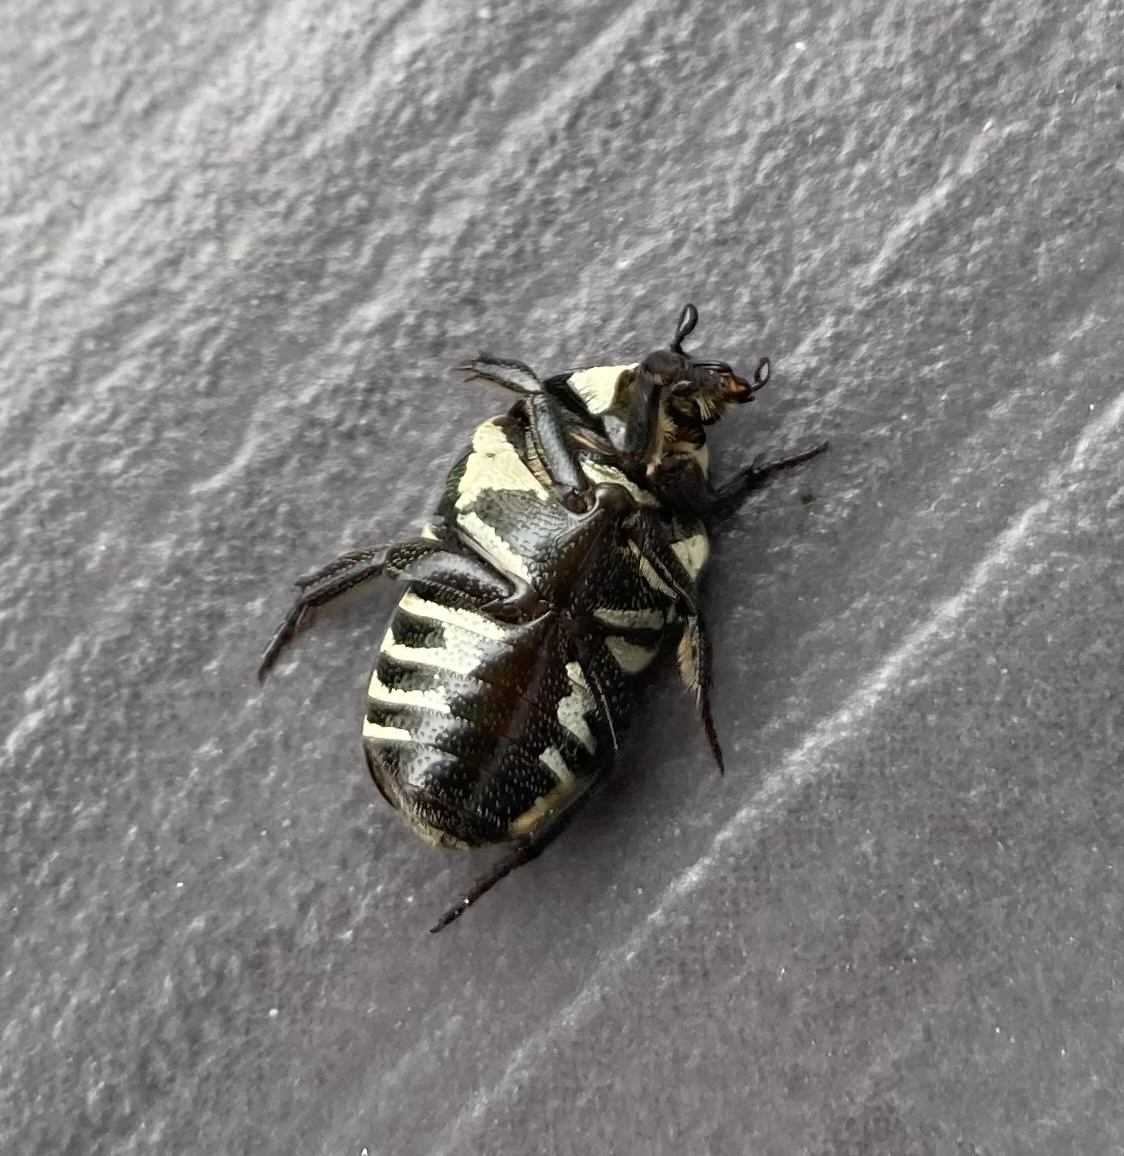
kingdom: Animalia
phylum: Arthropoda
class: Insecta
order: Coleoptera
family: Scarabaeidae
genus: Glycyphana
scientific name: Glycyphana festiva
